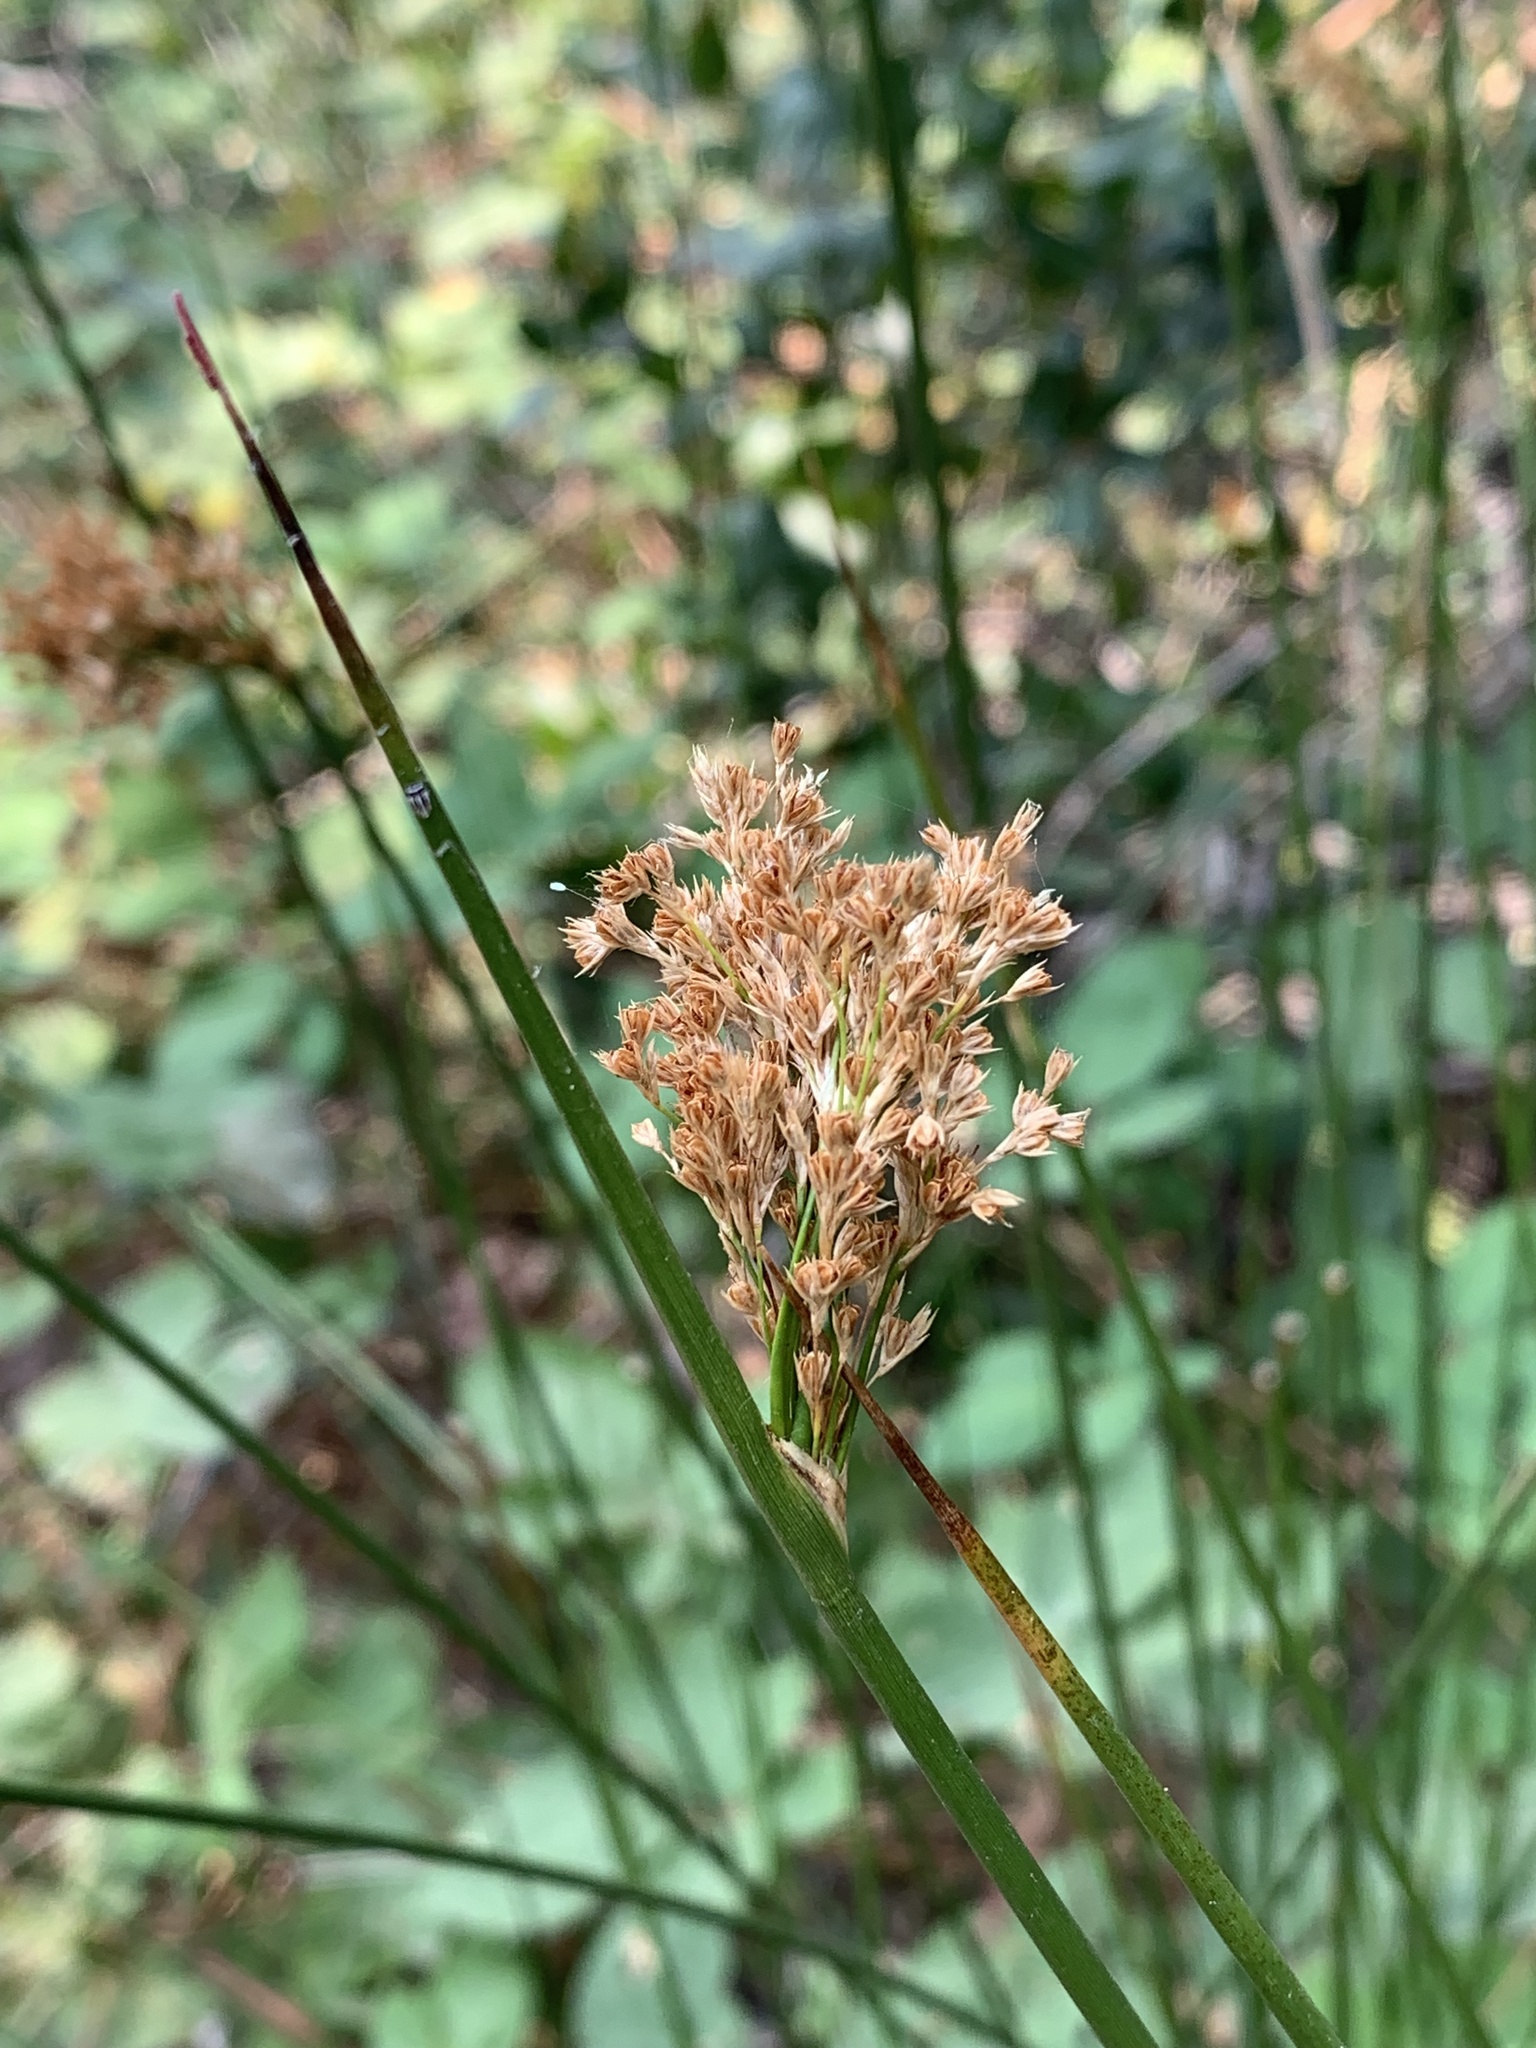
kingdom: Plantae
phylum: Tracheophyta
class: Liliopsida
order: Poales
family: Juncaceae
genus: Juncus
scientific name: Juncus effusus
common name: Soft rush
